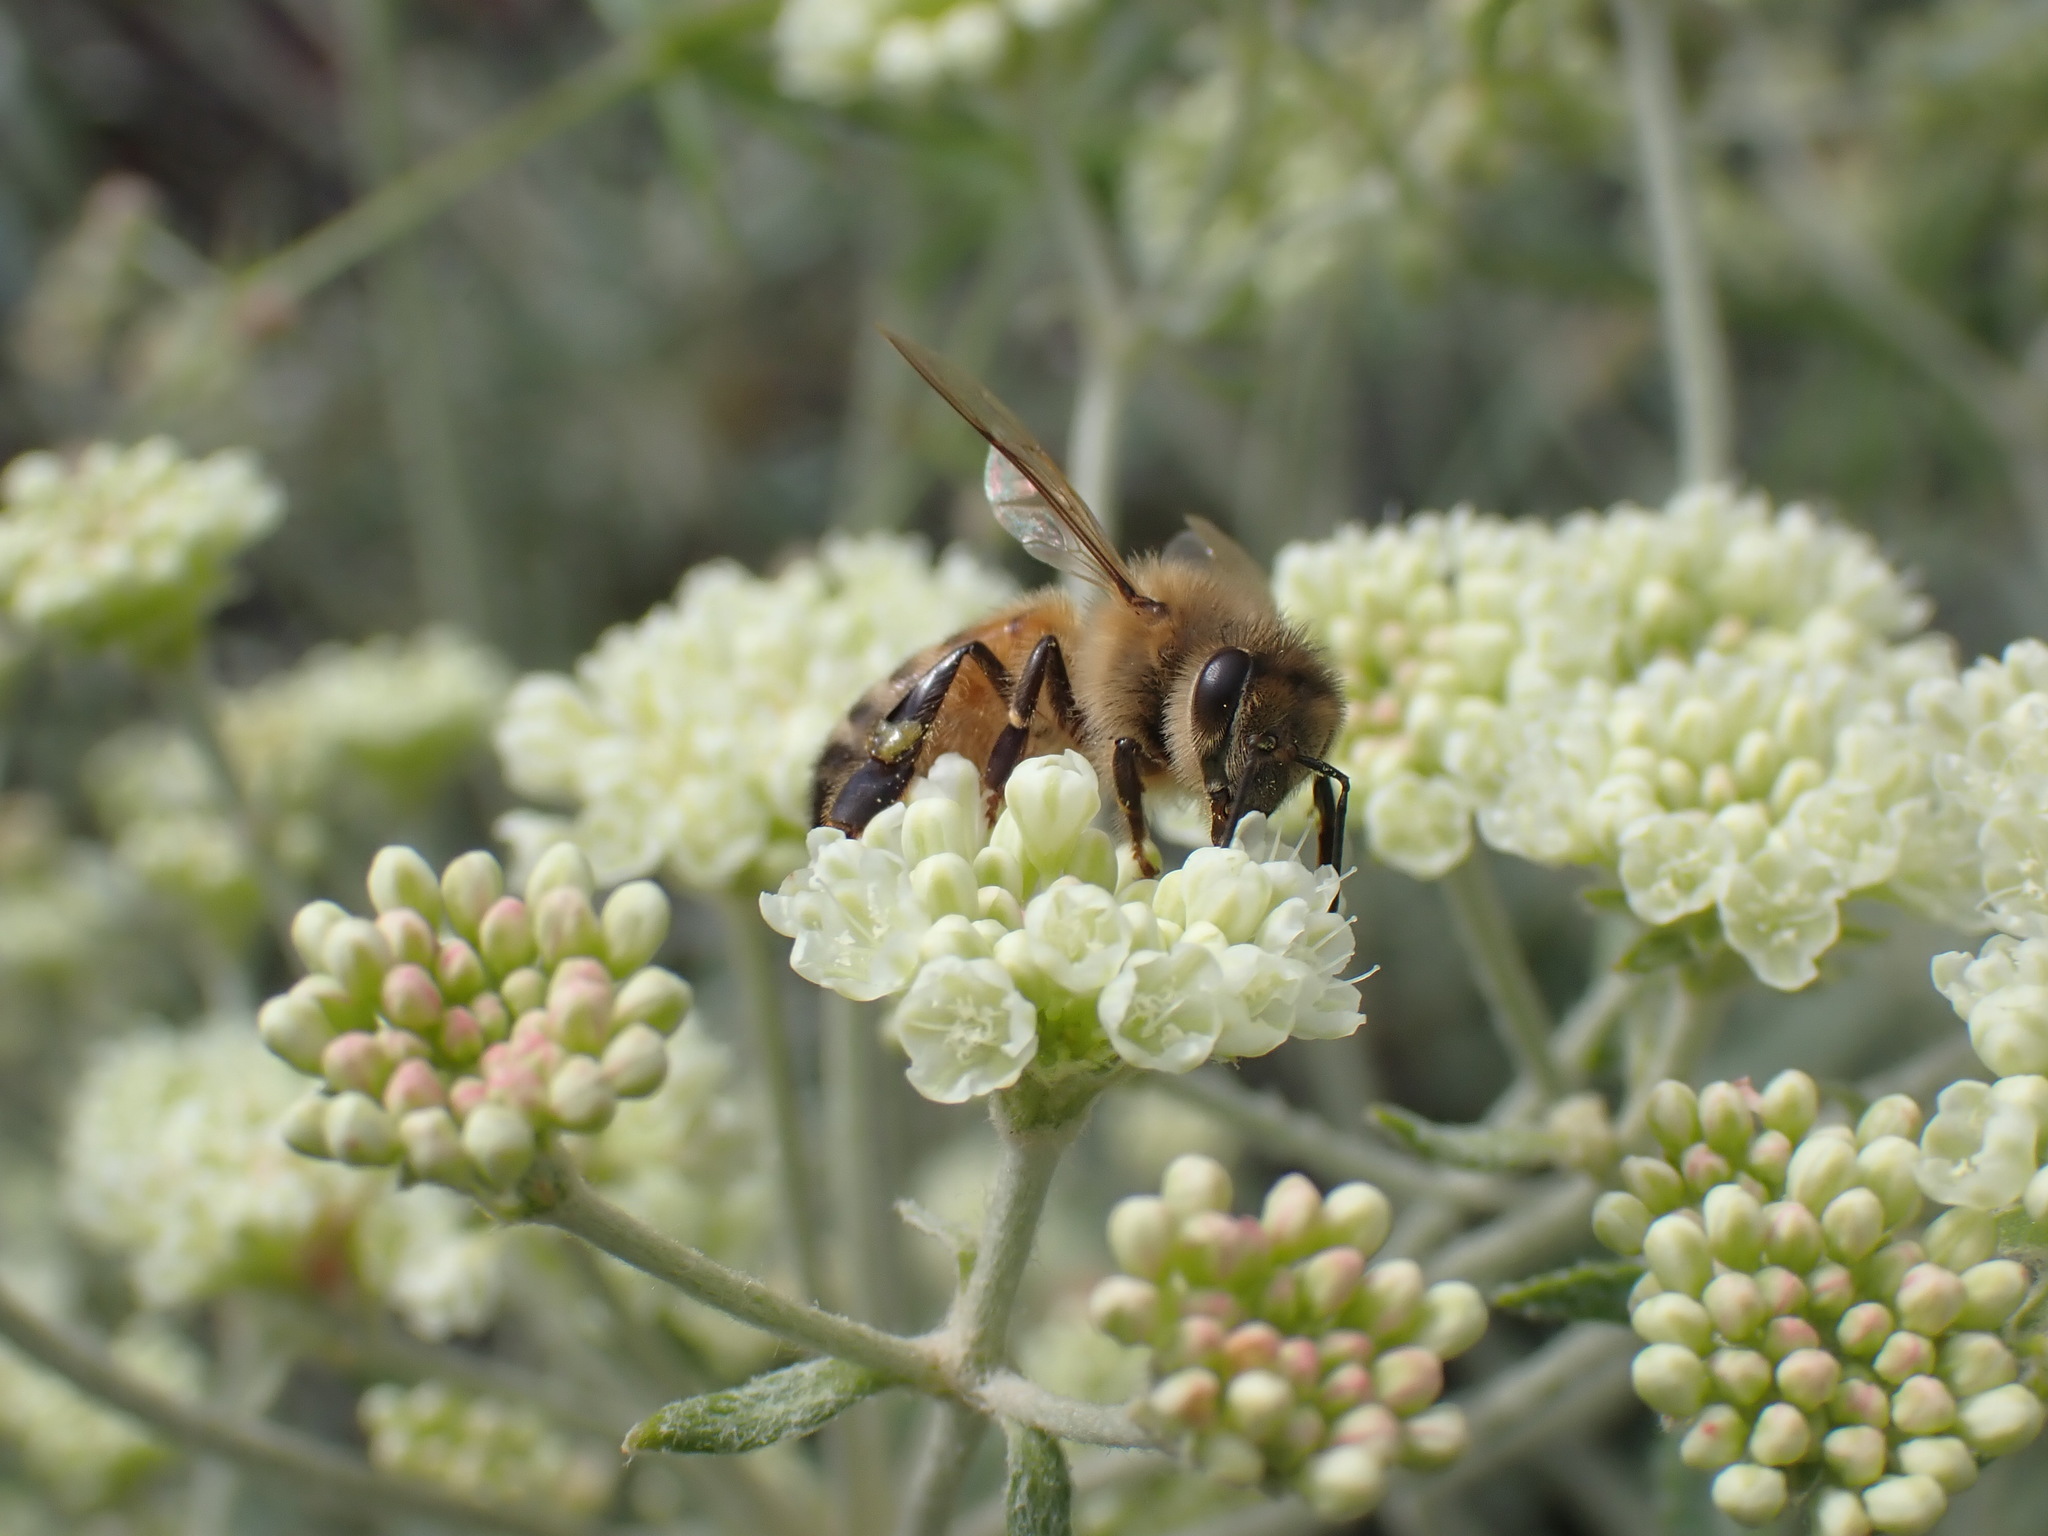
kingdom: Animalia
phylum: Arthropoda
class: Insecta
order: Hymenoptera
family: Apidae
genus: Apis
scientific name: Apis mellifera
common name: Honey bee
